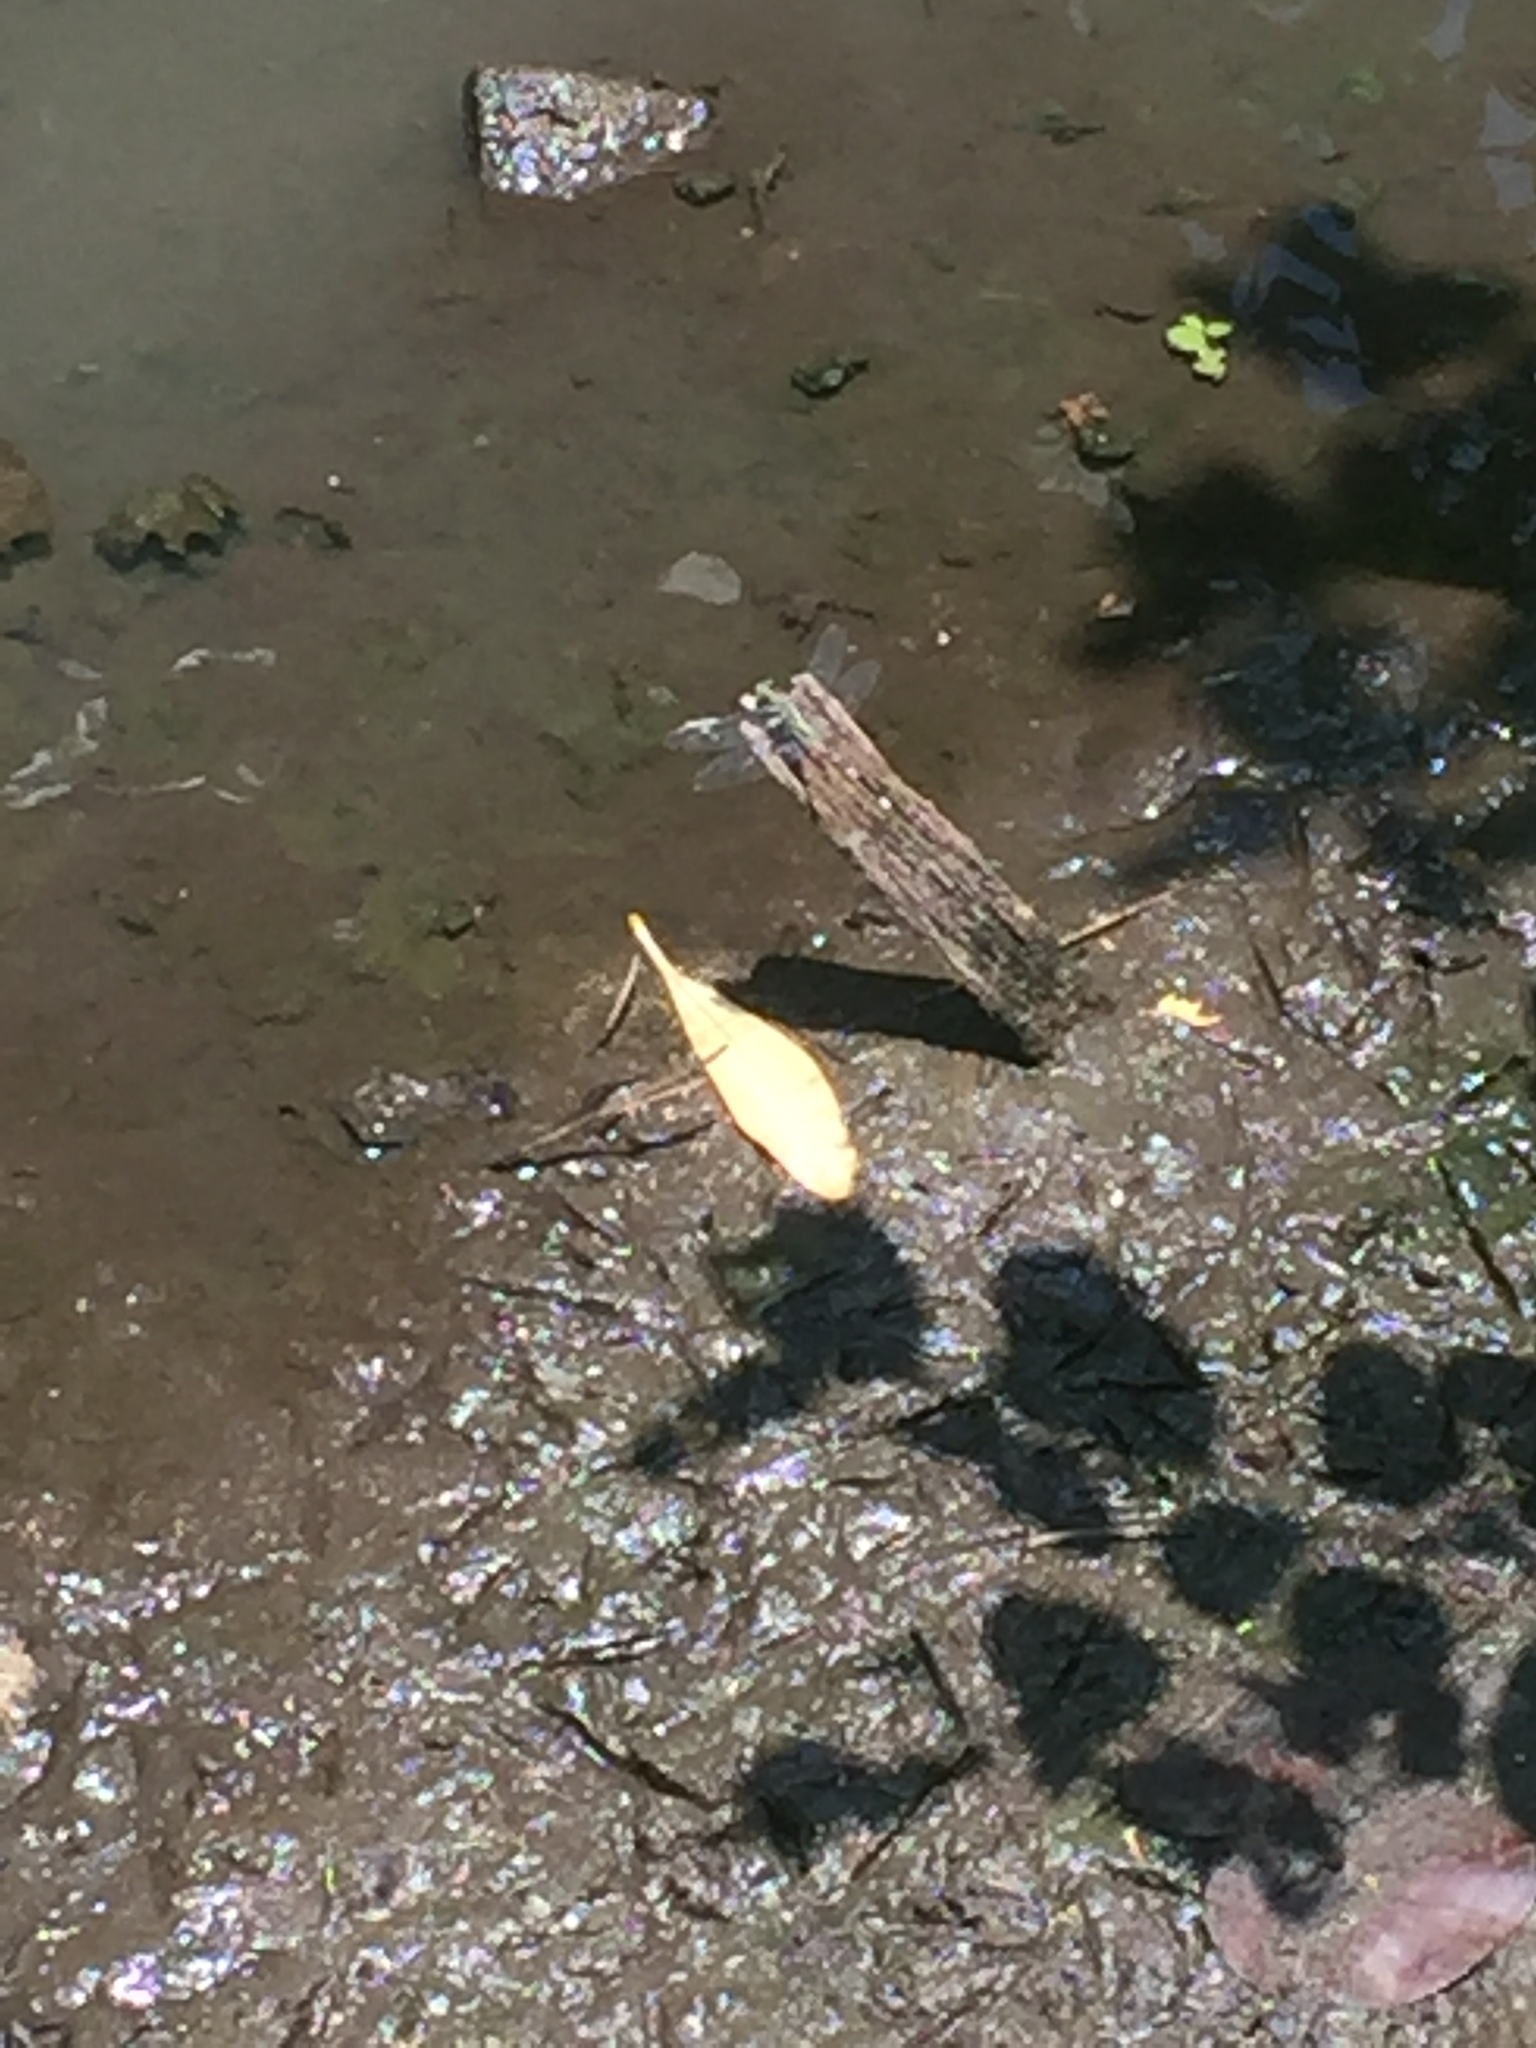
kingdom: Animalia
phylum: Arthropoda
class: Insecta
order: Odonata
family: Libellulidae
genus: Orthetrum
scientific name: Orthetrum sabina
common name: Slender skimmer
